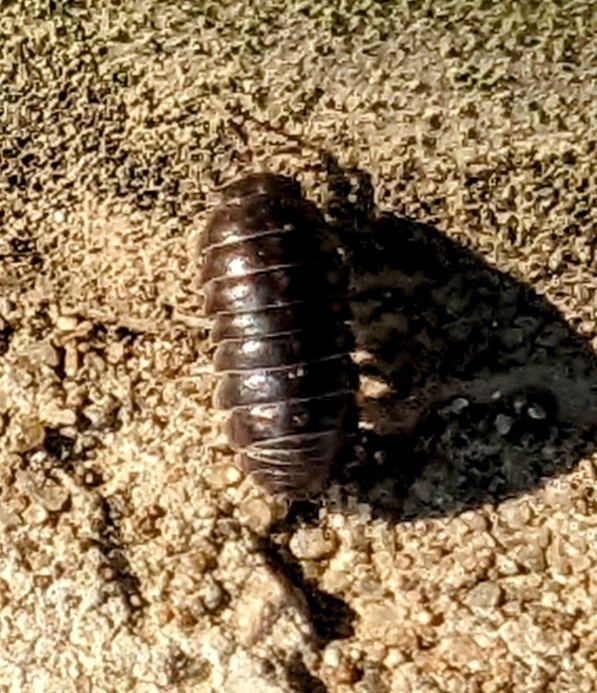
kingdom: Animalia
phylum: Arthropoda
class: Malacostraca
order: Isopoda
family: Armadillidiidae
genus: Armadillidium
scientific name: Armadillidium vulgare
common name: Common pill woodlouse
